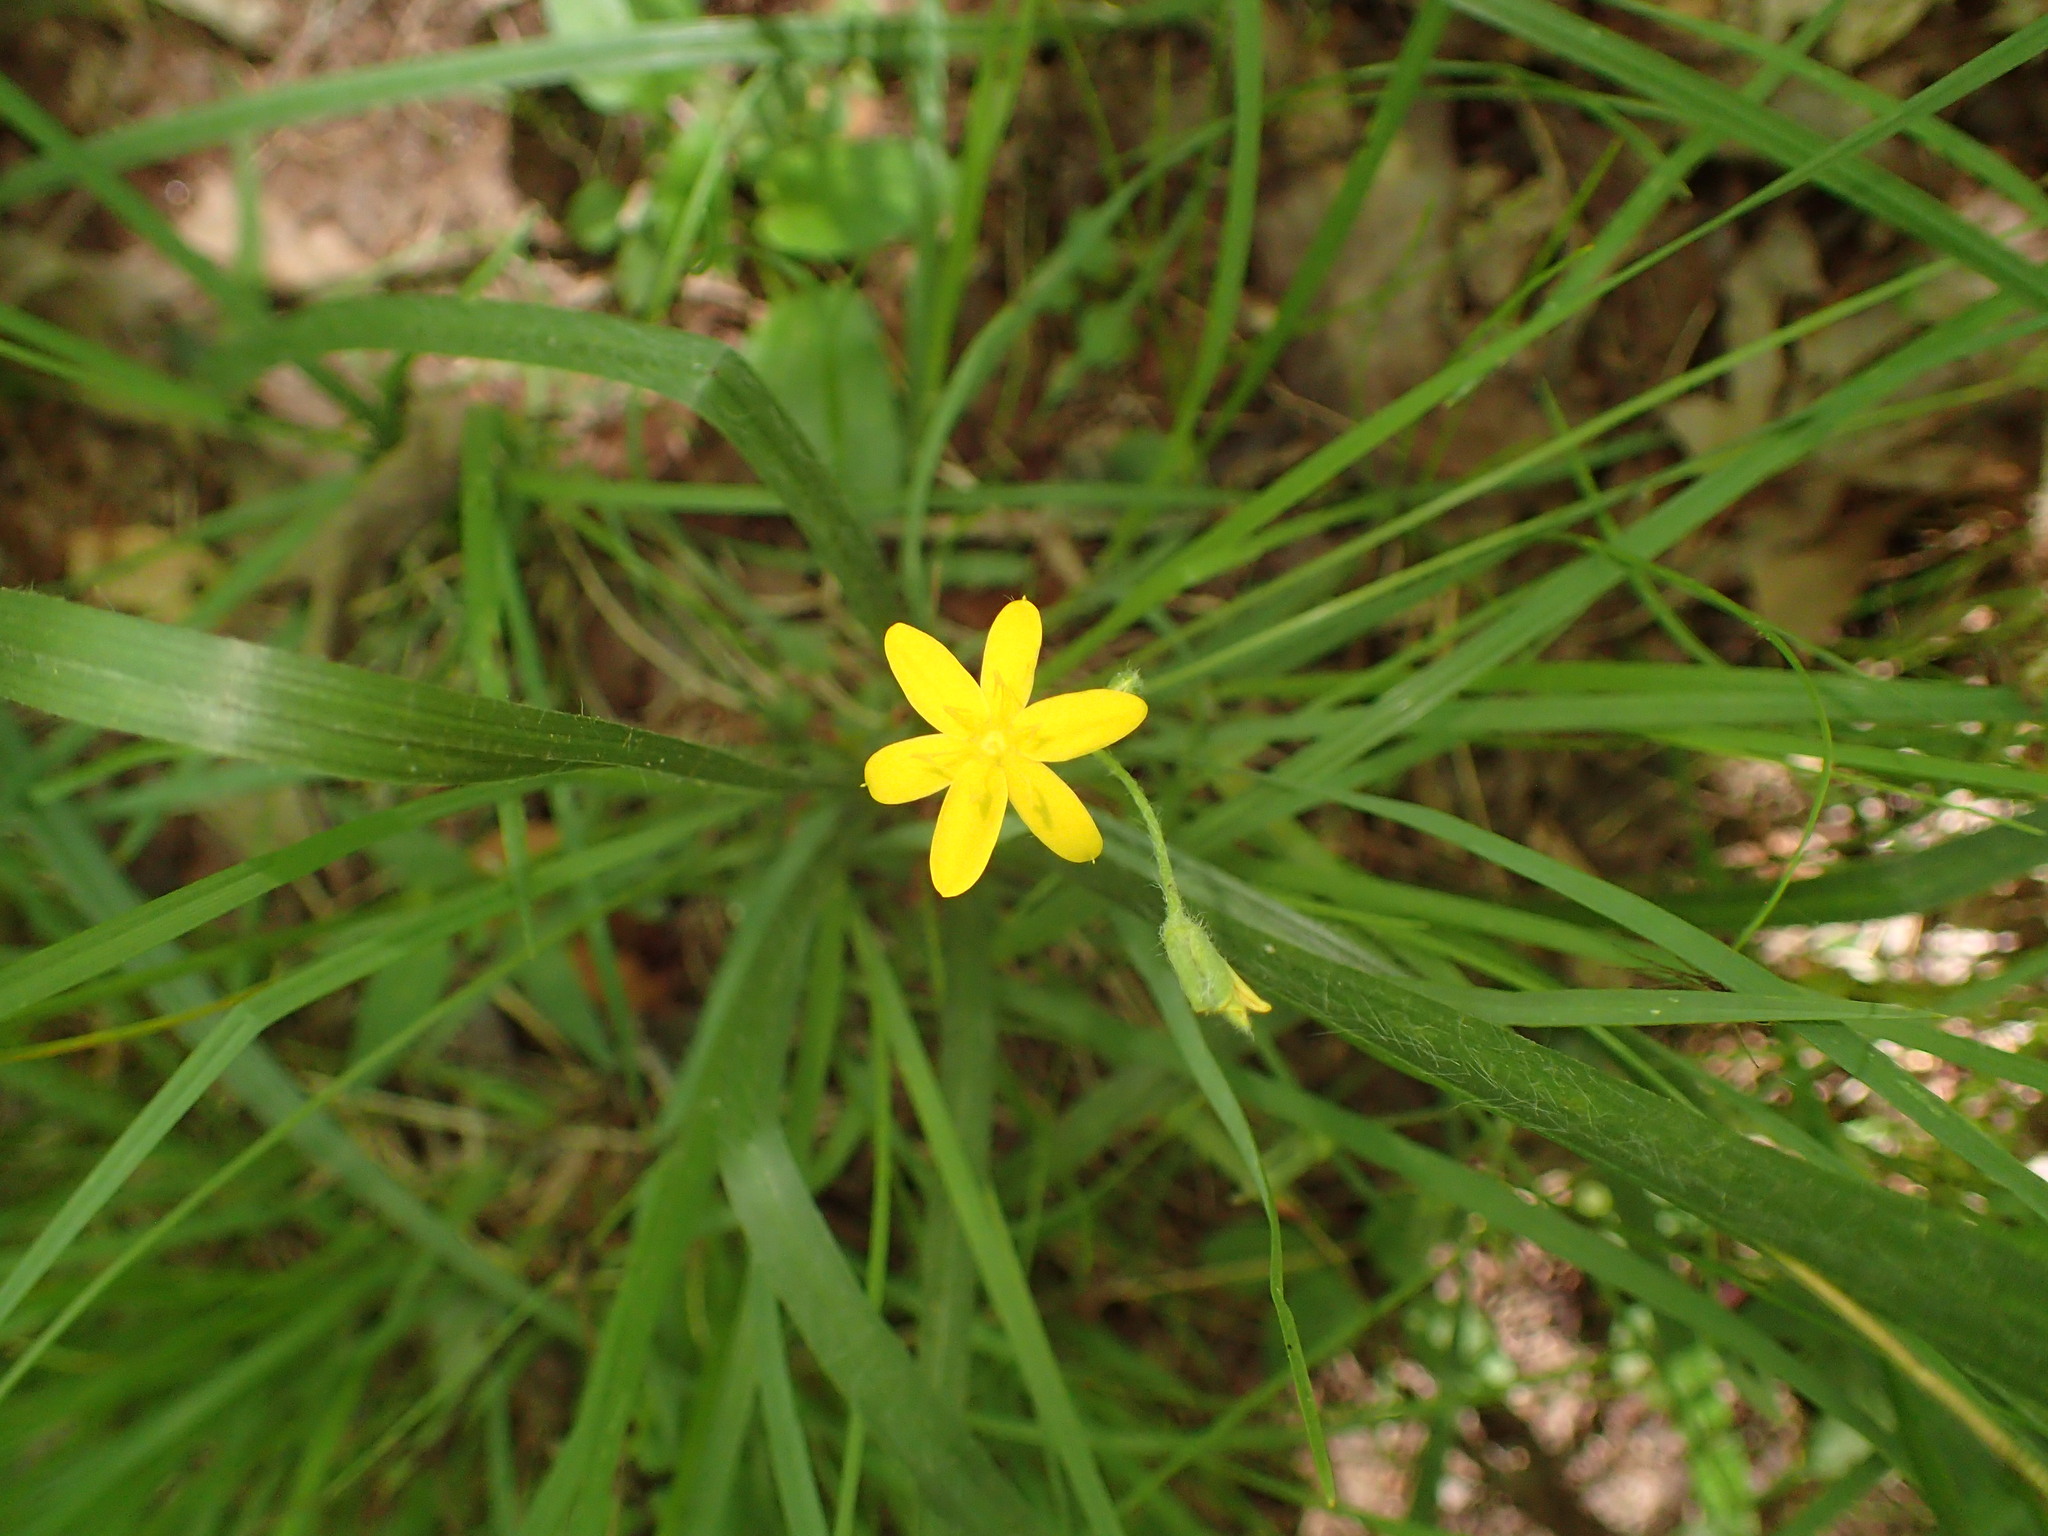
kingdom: Plantae
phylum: Tracheophyta
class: Liliopsida
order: Asparagales
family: Hypoxidaceae
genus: Hypoxis
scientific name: Hypoxis hirsuta
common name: Common goldstar
